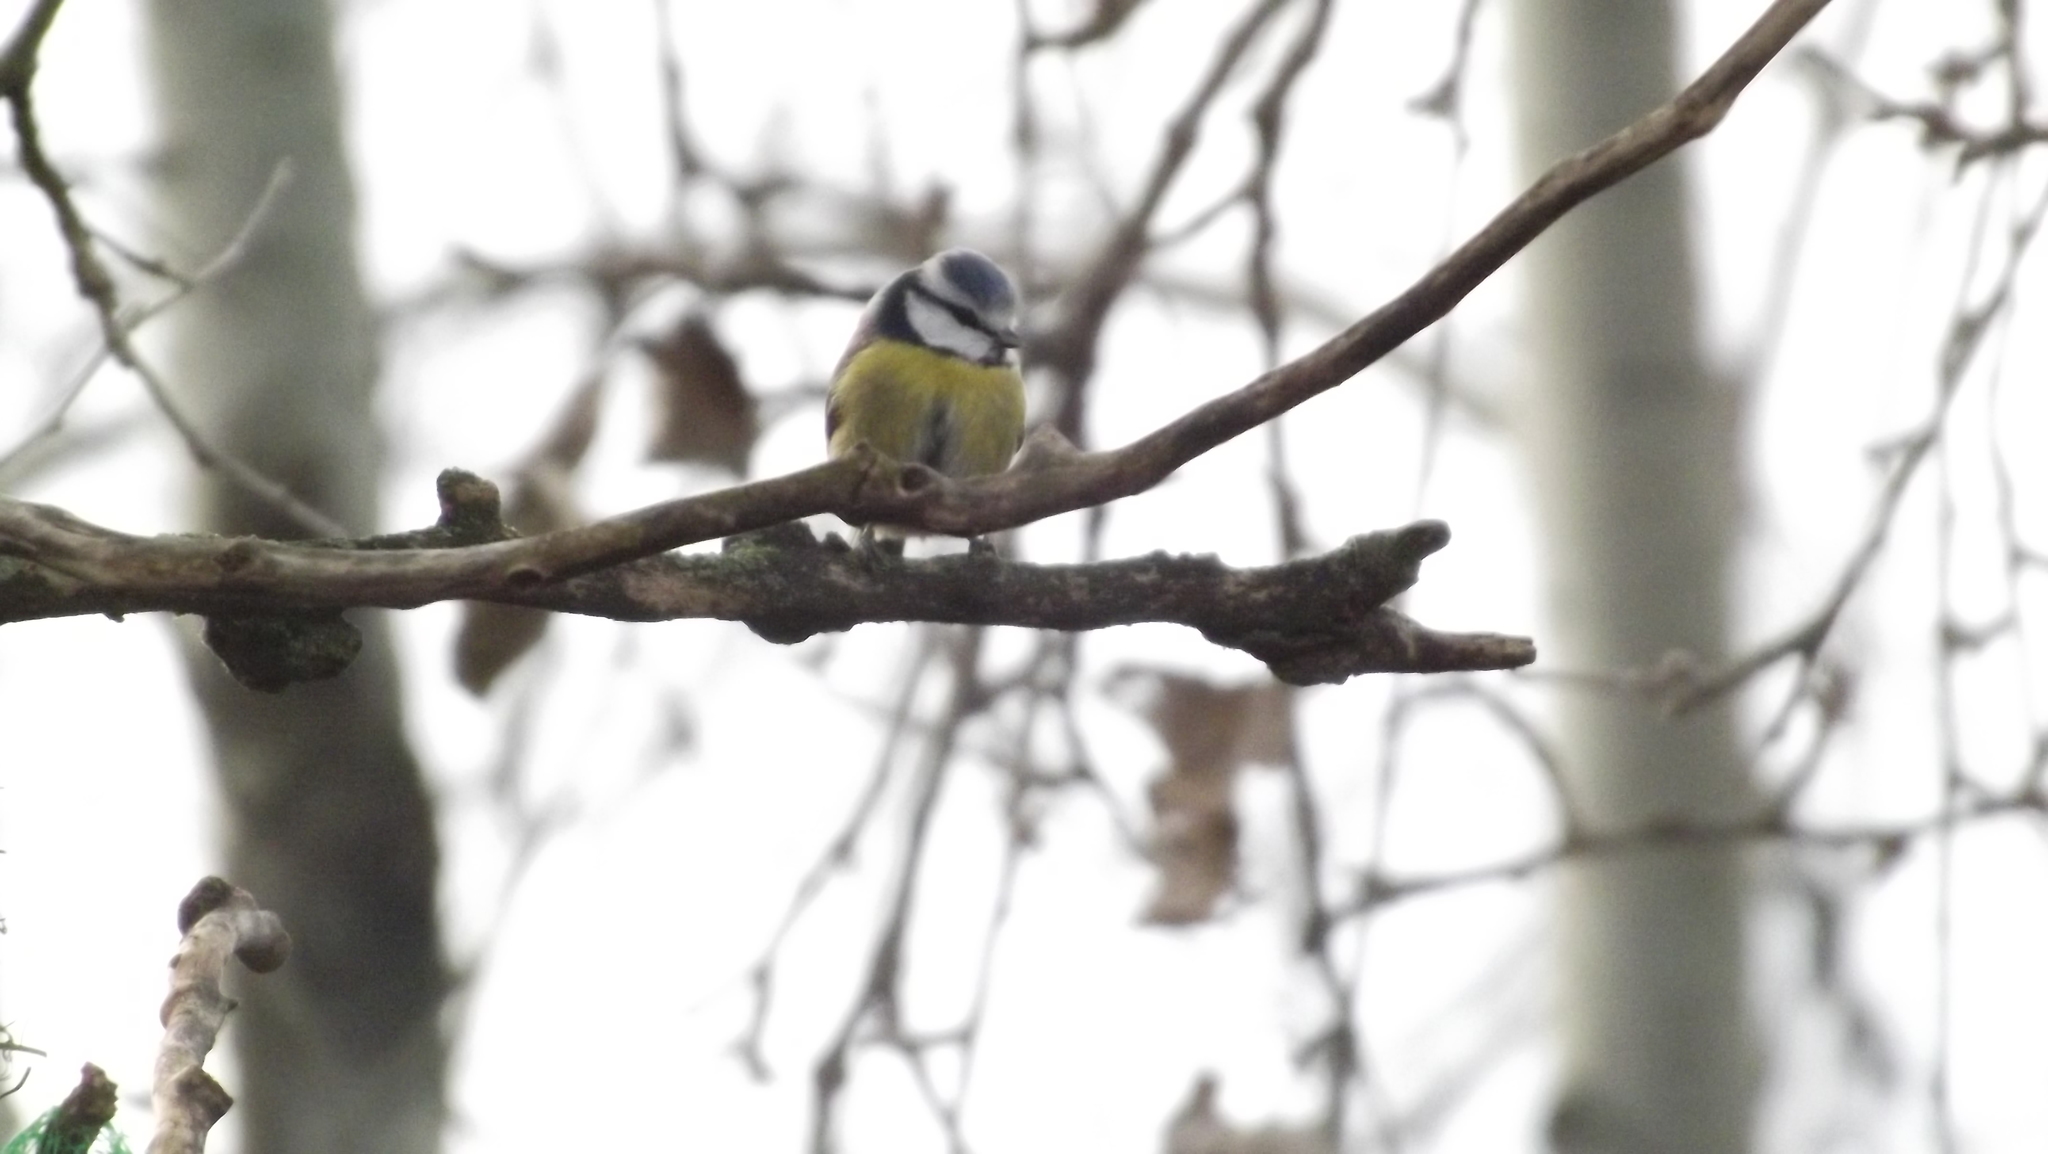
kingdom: Animalia
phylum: Chordata
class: Aves
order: Passeriformes
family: Paridae
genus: Cyanistes
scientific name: Cyanistes caeruleus
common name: Eurasian blue tit
